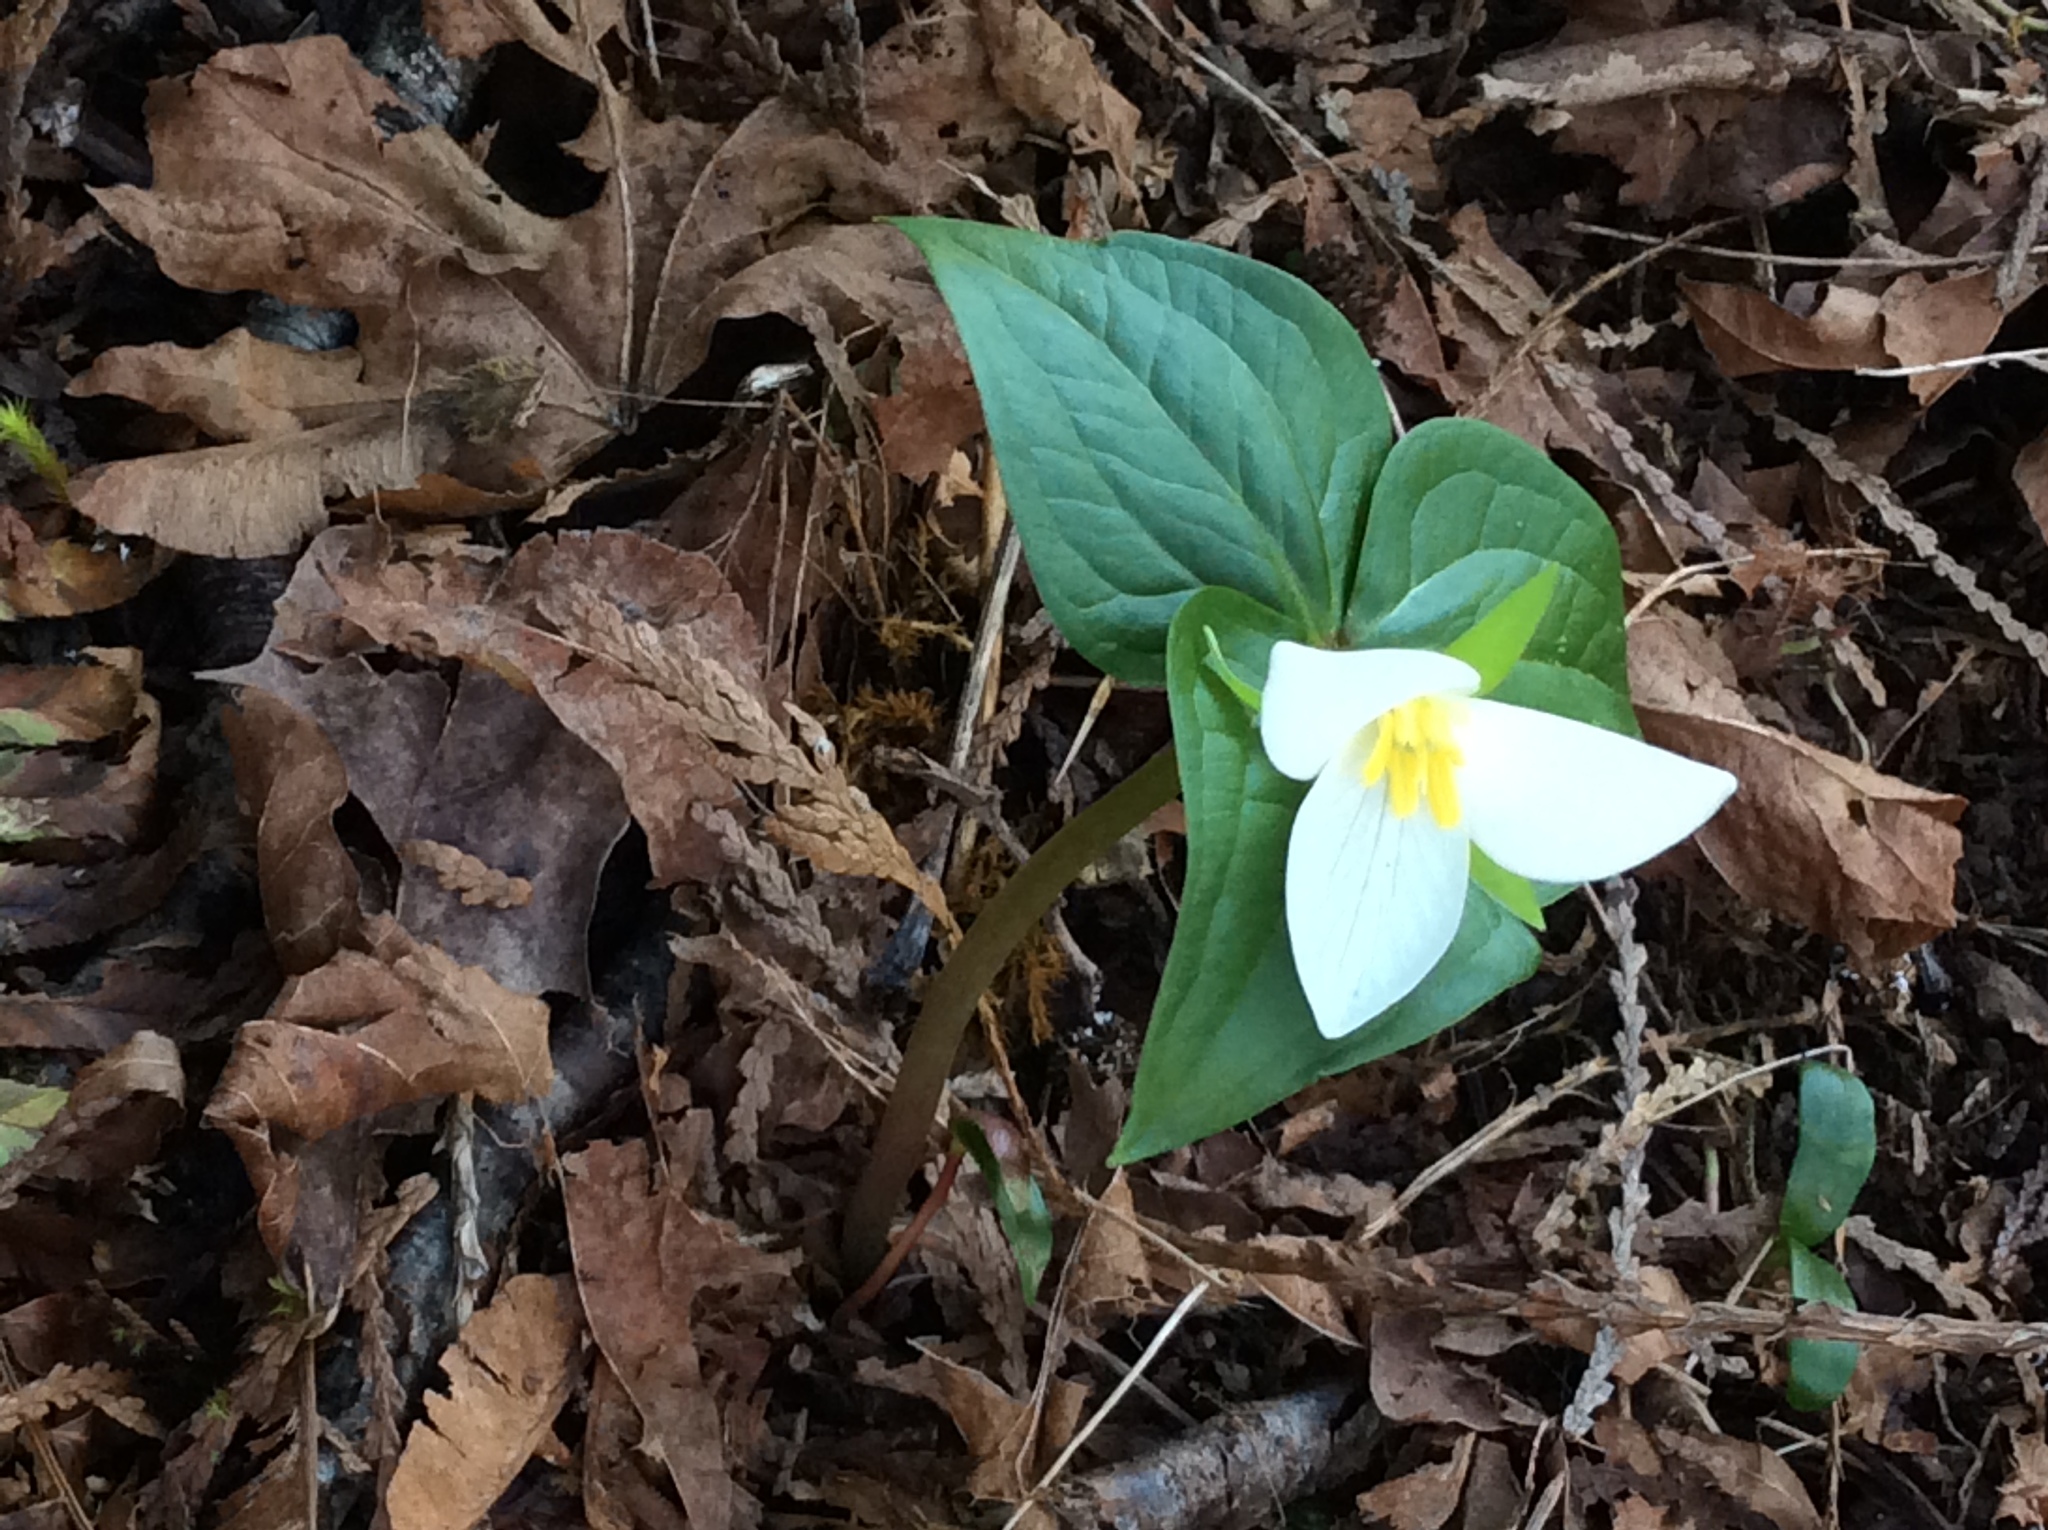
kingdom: Plantae
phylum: Tracheophyta
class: Liliopsida
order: Liliales
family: Melanthiaceae
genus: Trillium
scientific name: Trillium ovatum
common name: Pacific trillium
